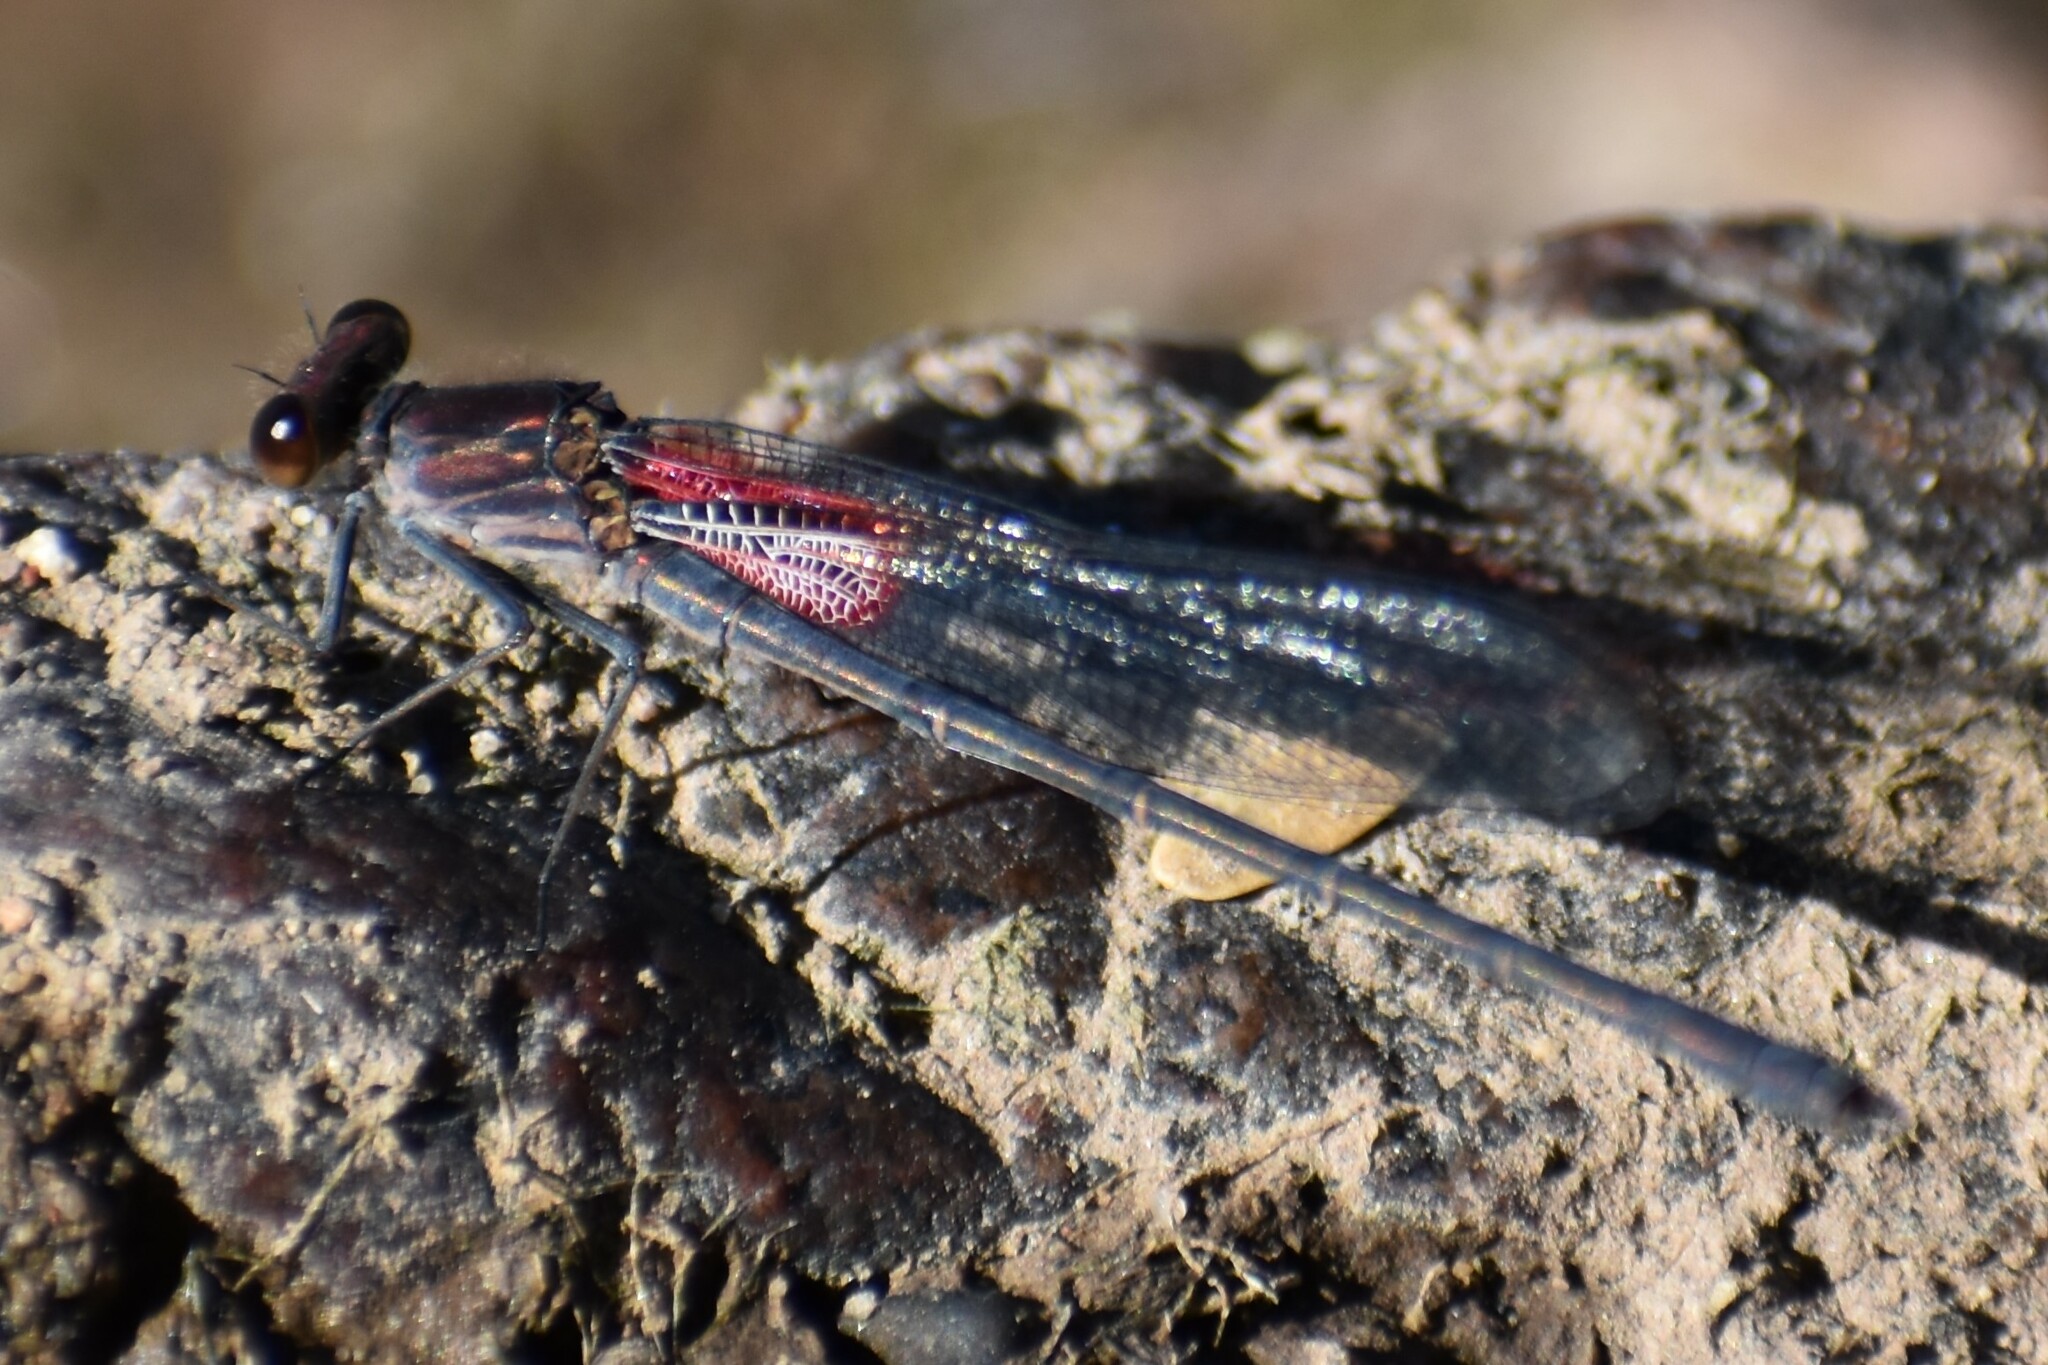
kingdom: Animalia
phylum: Arthropoda
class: Insecta
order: Odonata
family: Calopterygidae
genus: Hetaerina
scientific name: Hetaerina americana
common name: American rubyspot
